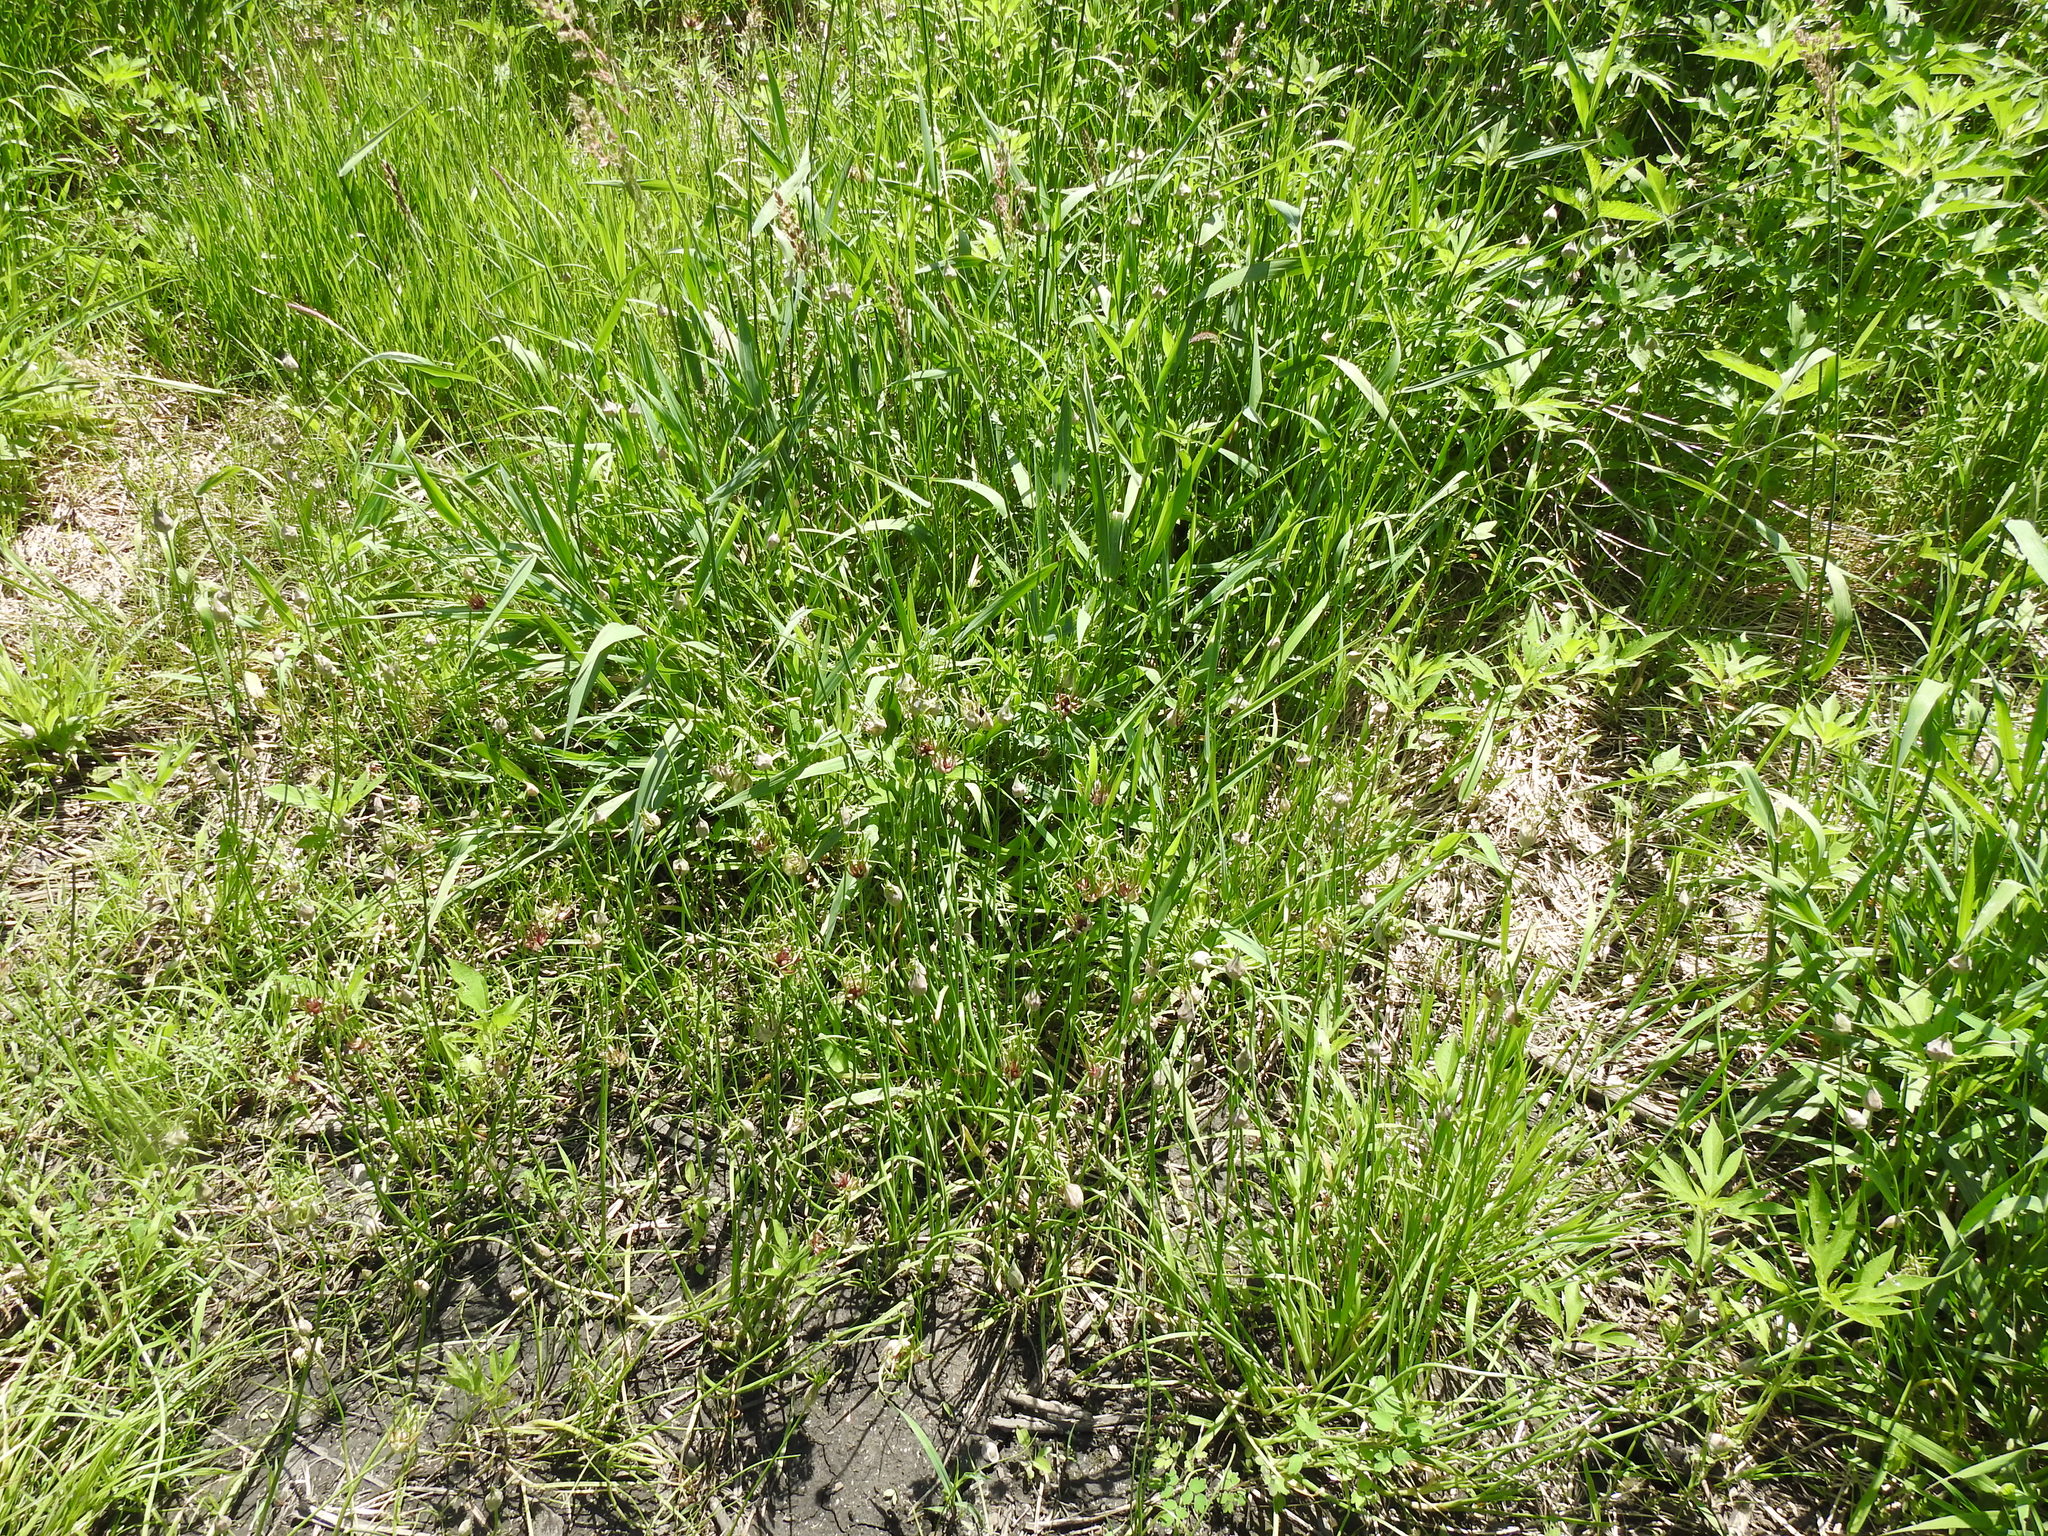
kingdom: Plantae
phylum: Tracheophyta
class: Liliopsida
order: Asparagales
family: Amaryllidaceae
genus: Allium
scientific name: Allium canadense
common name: Meadow garlic
